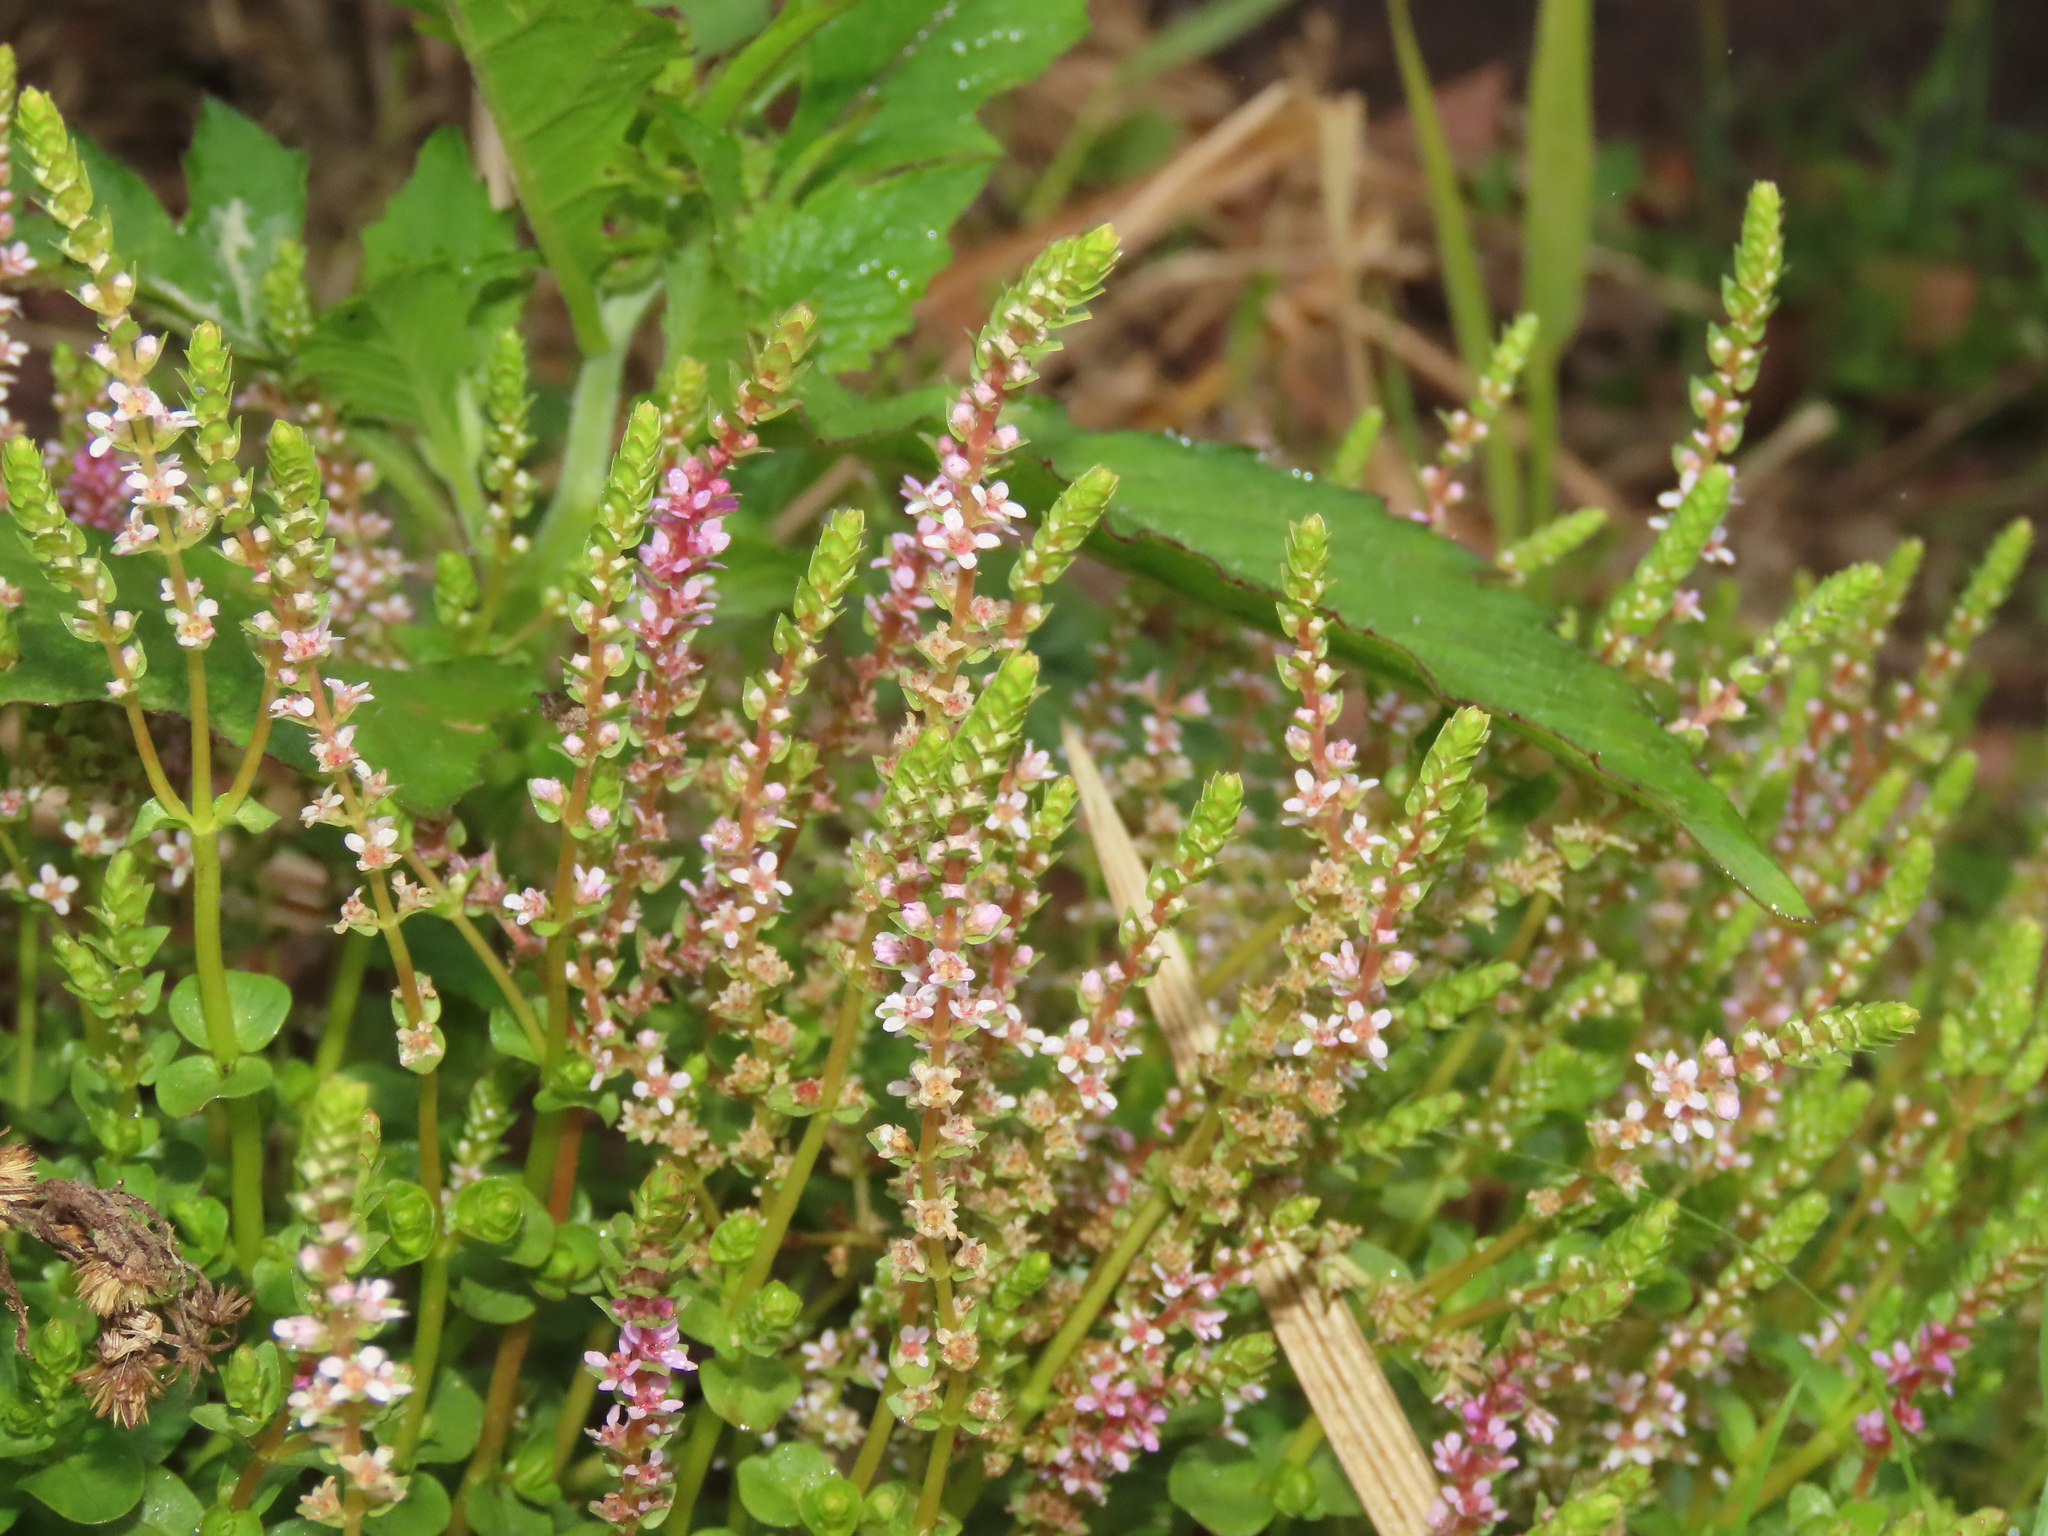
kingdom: Plantae
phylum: Tracheophyta
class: Magnoliopsida
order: Myrtales
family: Lythraceae
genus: Rotala
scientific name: Rotala rotundifolia
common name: Roundleaf toothcup
